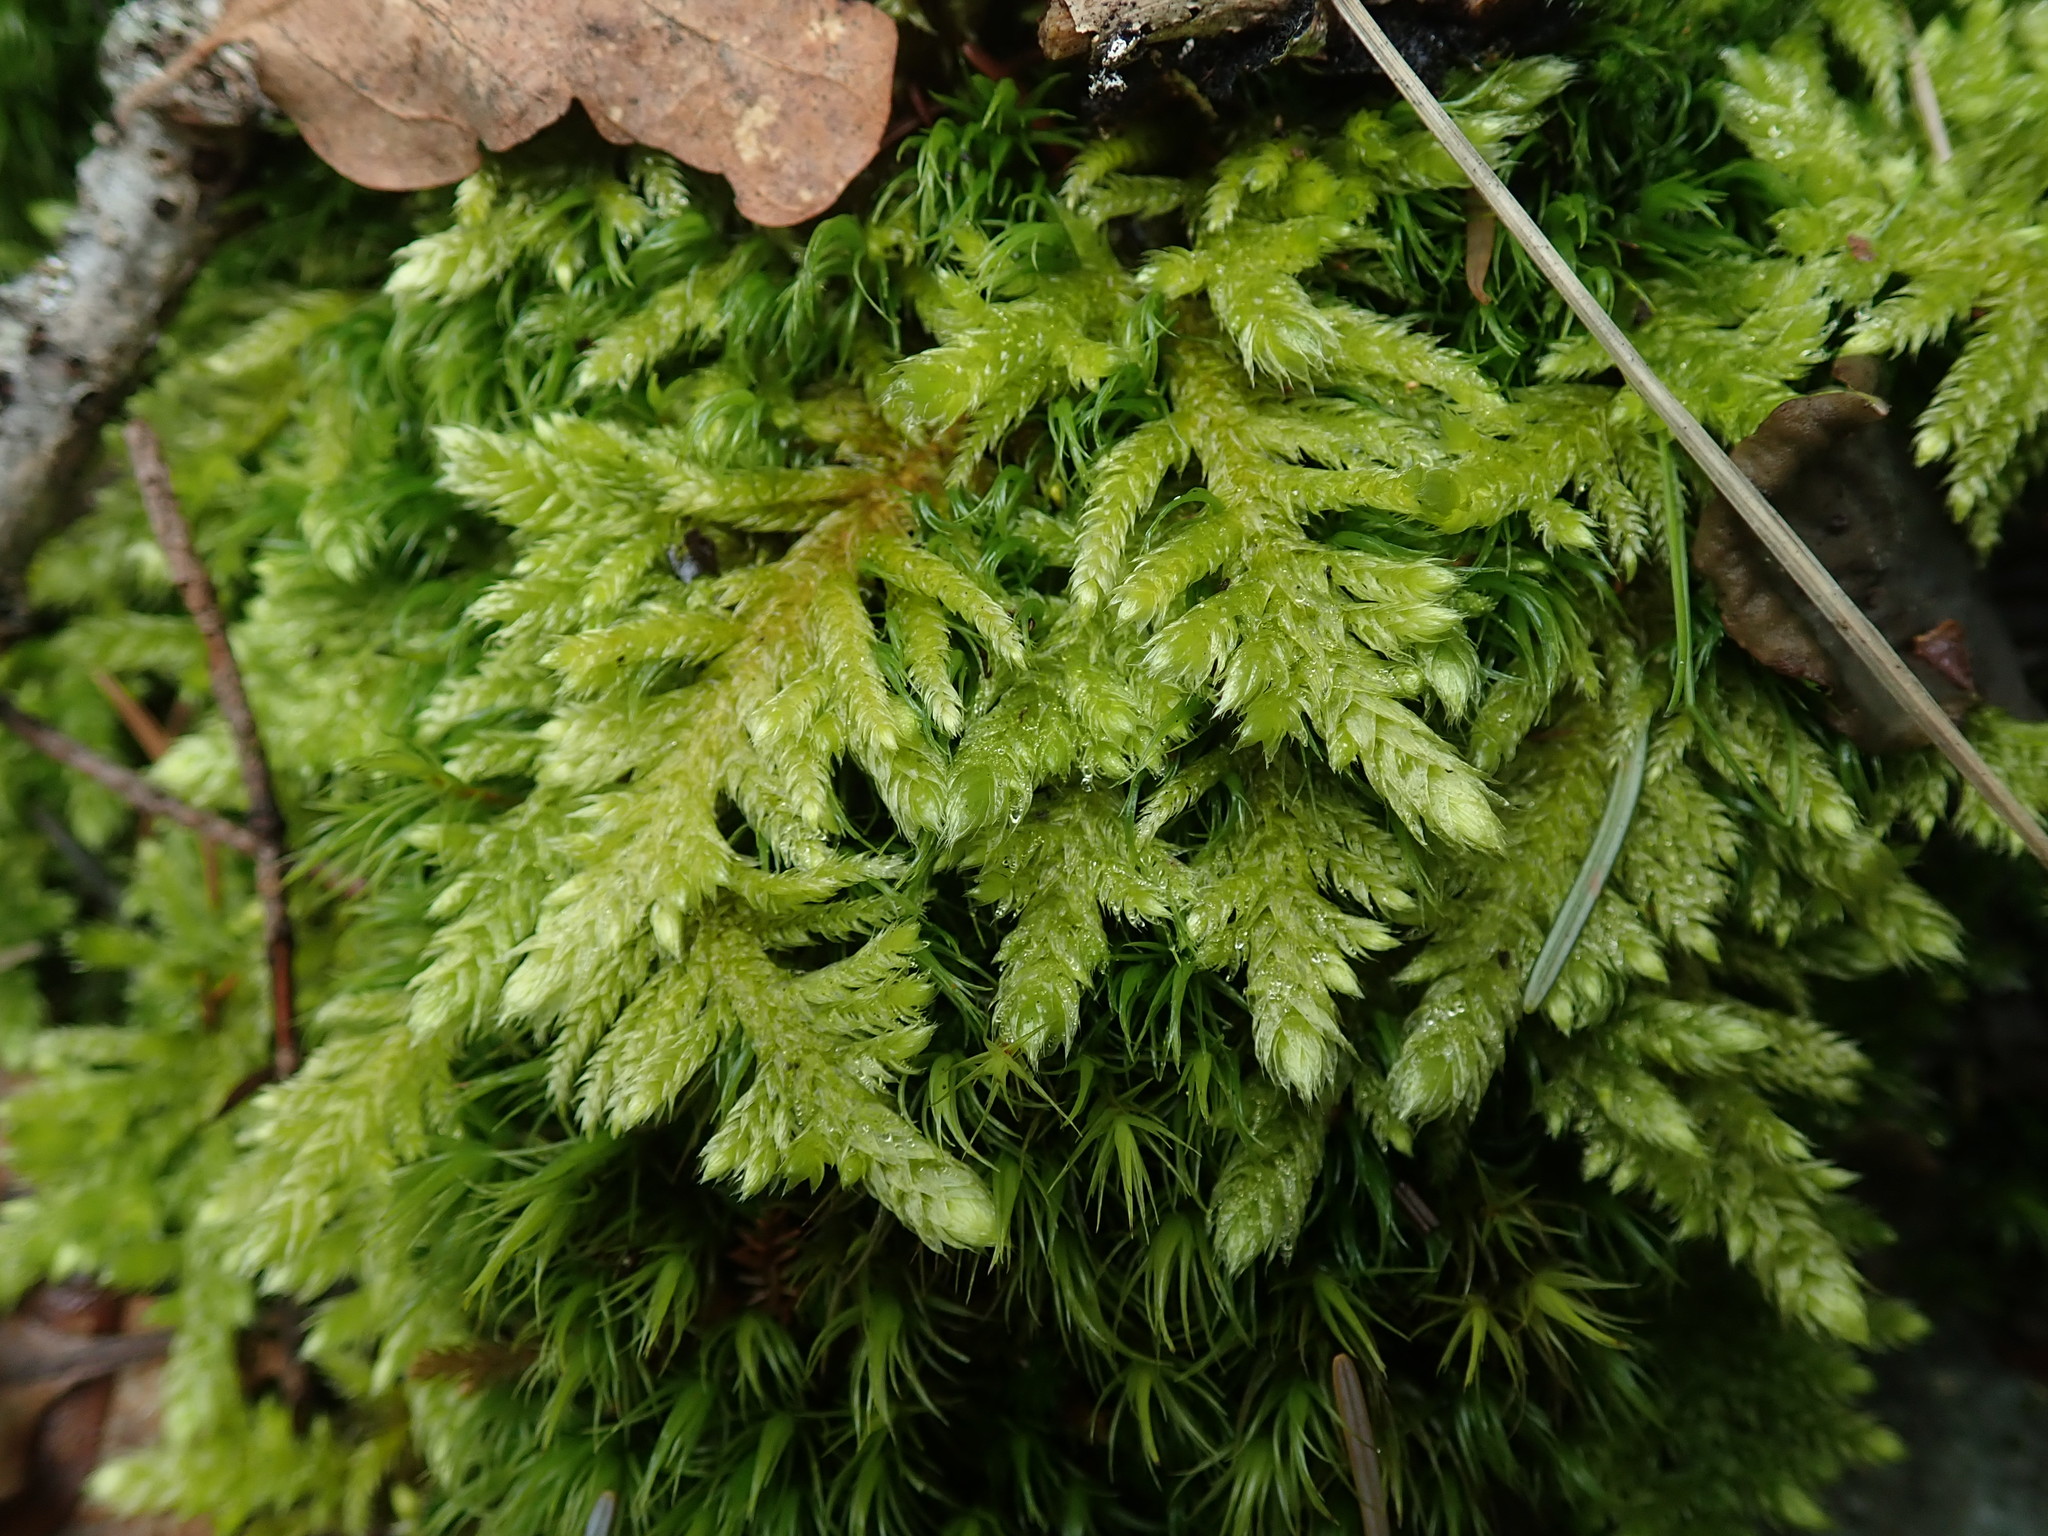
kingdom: Plantae
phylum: Bryophyta
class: Bryopsida
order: Hypnales
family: Brachytheciaceae
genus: Homalothecium
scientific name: Homalothecium megaptilum
